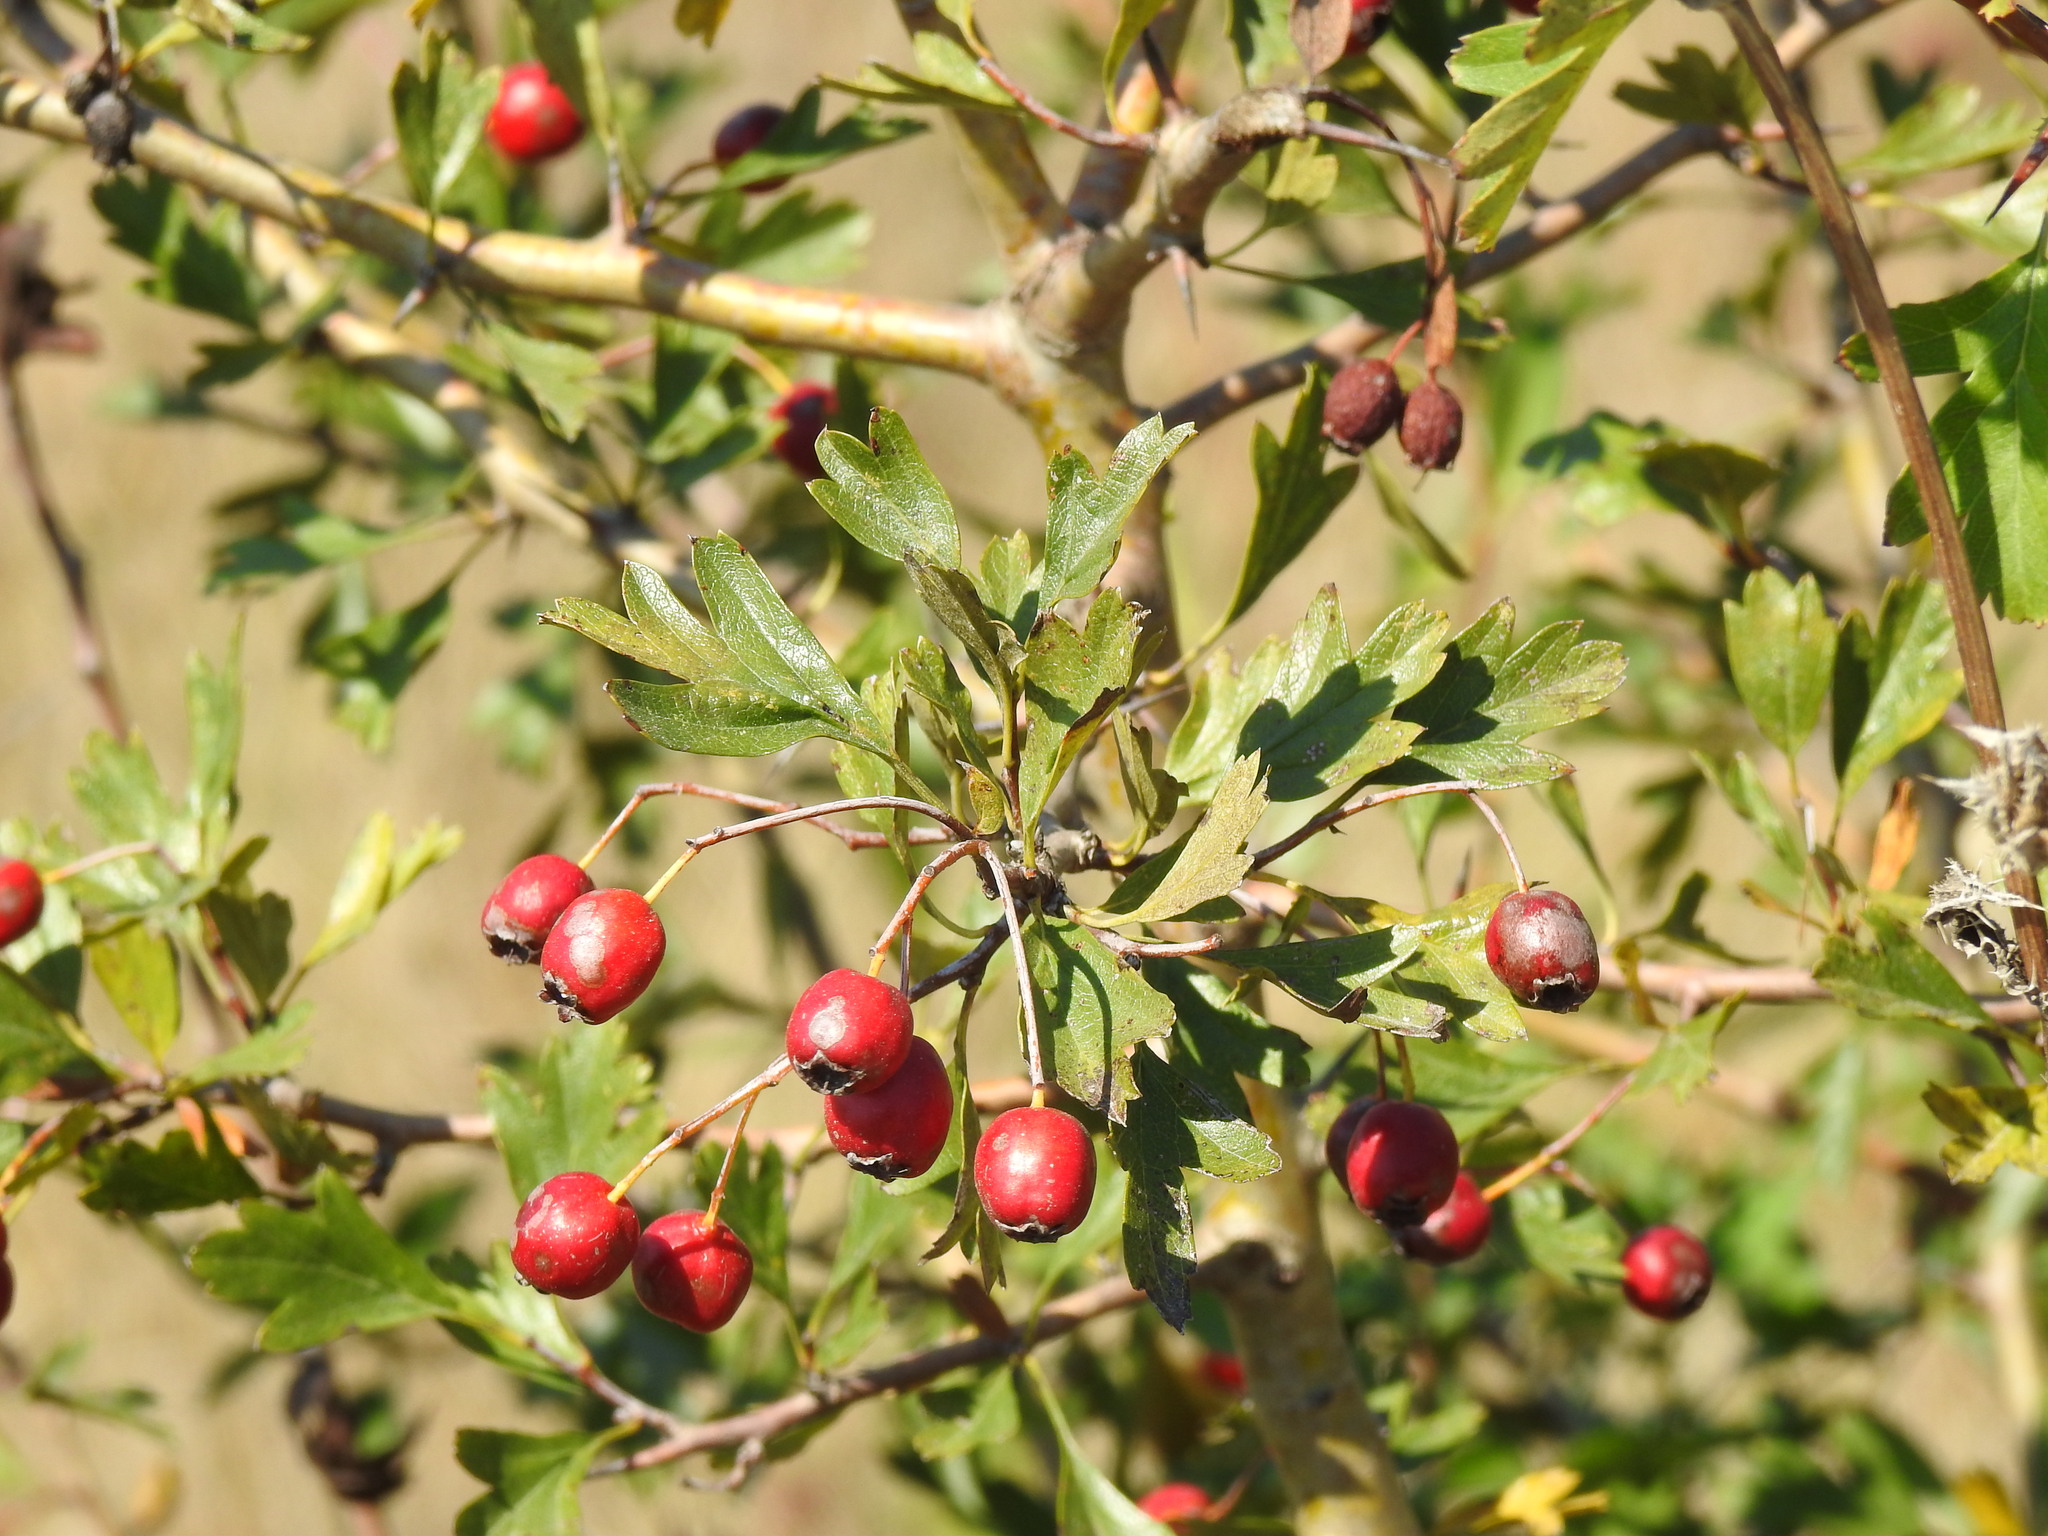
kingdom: Plantae
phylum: Tracheophyta
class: Magnoliopsida
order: Rosales
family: Rosaceae
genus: Crataegus
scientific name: Crataegus monogyna
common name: Hawthorn
